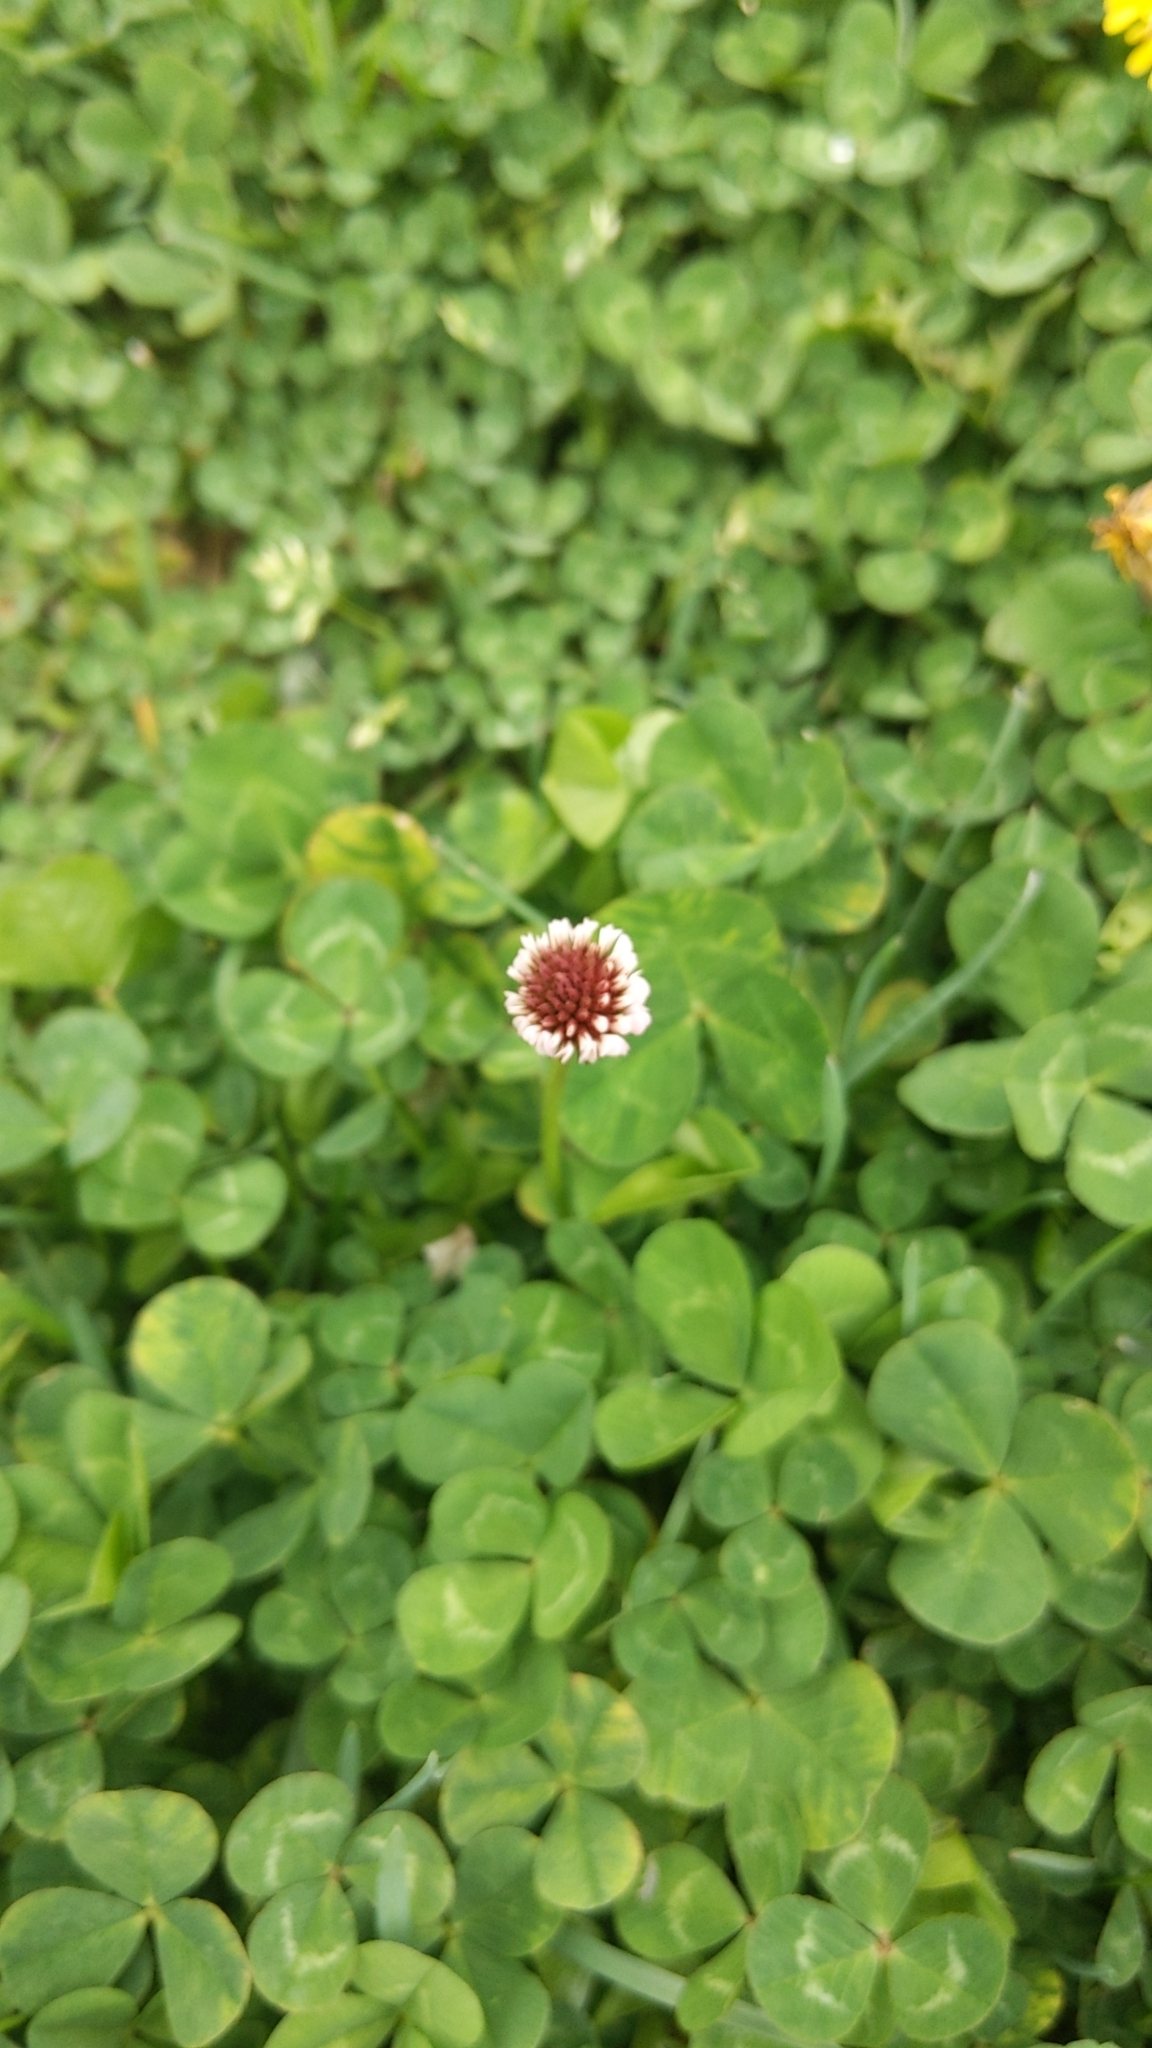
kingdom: Plantae
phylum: Tracheophyta
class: Magnoliopsida
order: Fabales
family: Fabaceae
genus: Trifolium
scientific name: Trifolium repens
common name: White clover
